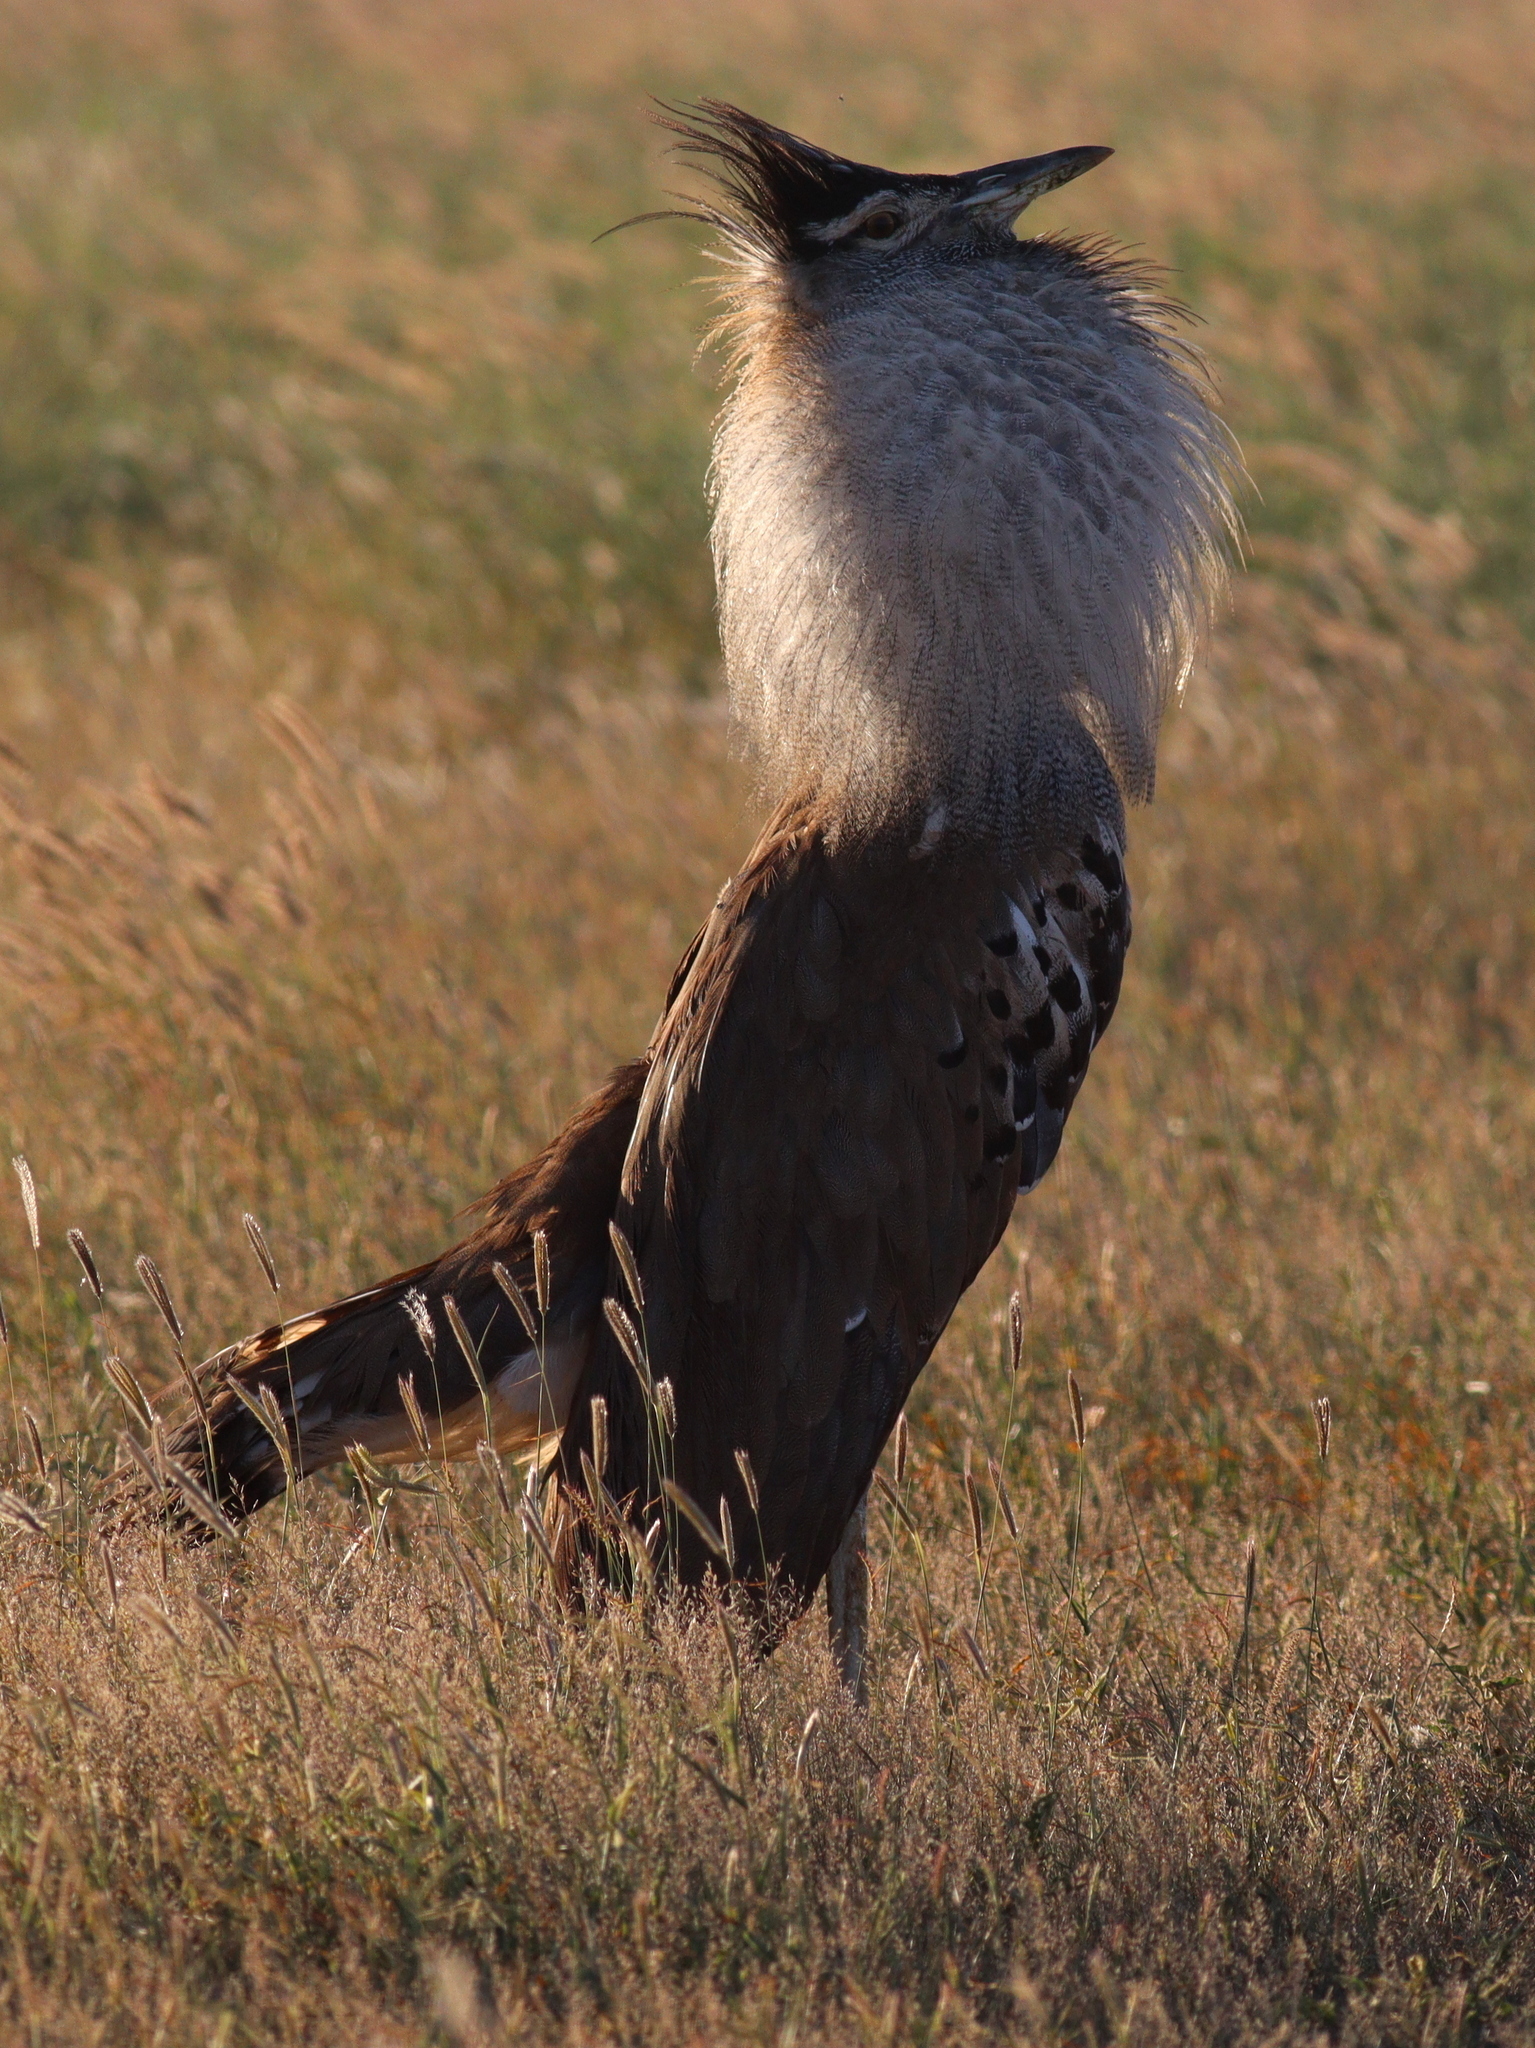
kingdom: Animalia
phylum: Chordata
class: Aves
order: Otidiformes
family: Otididae
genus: Ardeotis
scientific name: Ardeotis kori
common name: Kori bustard
